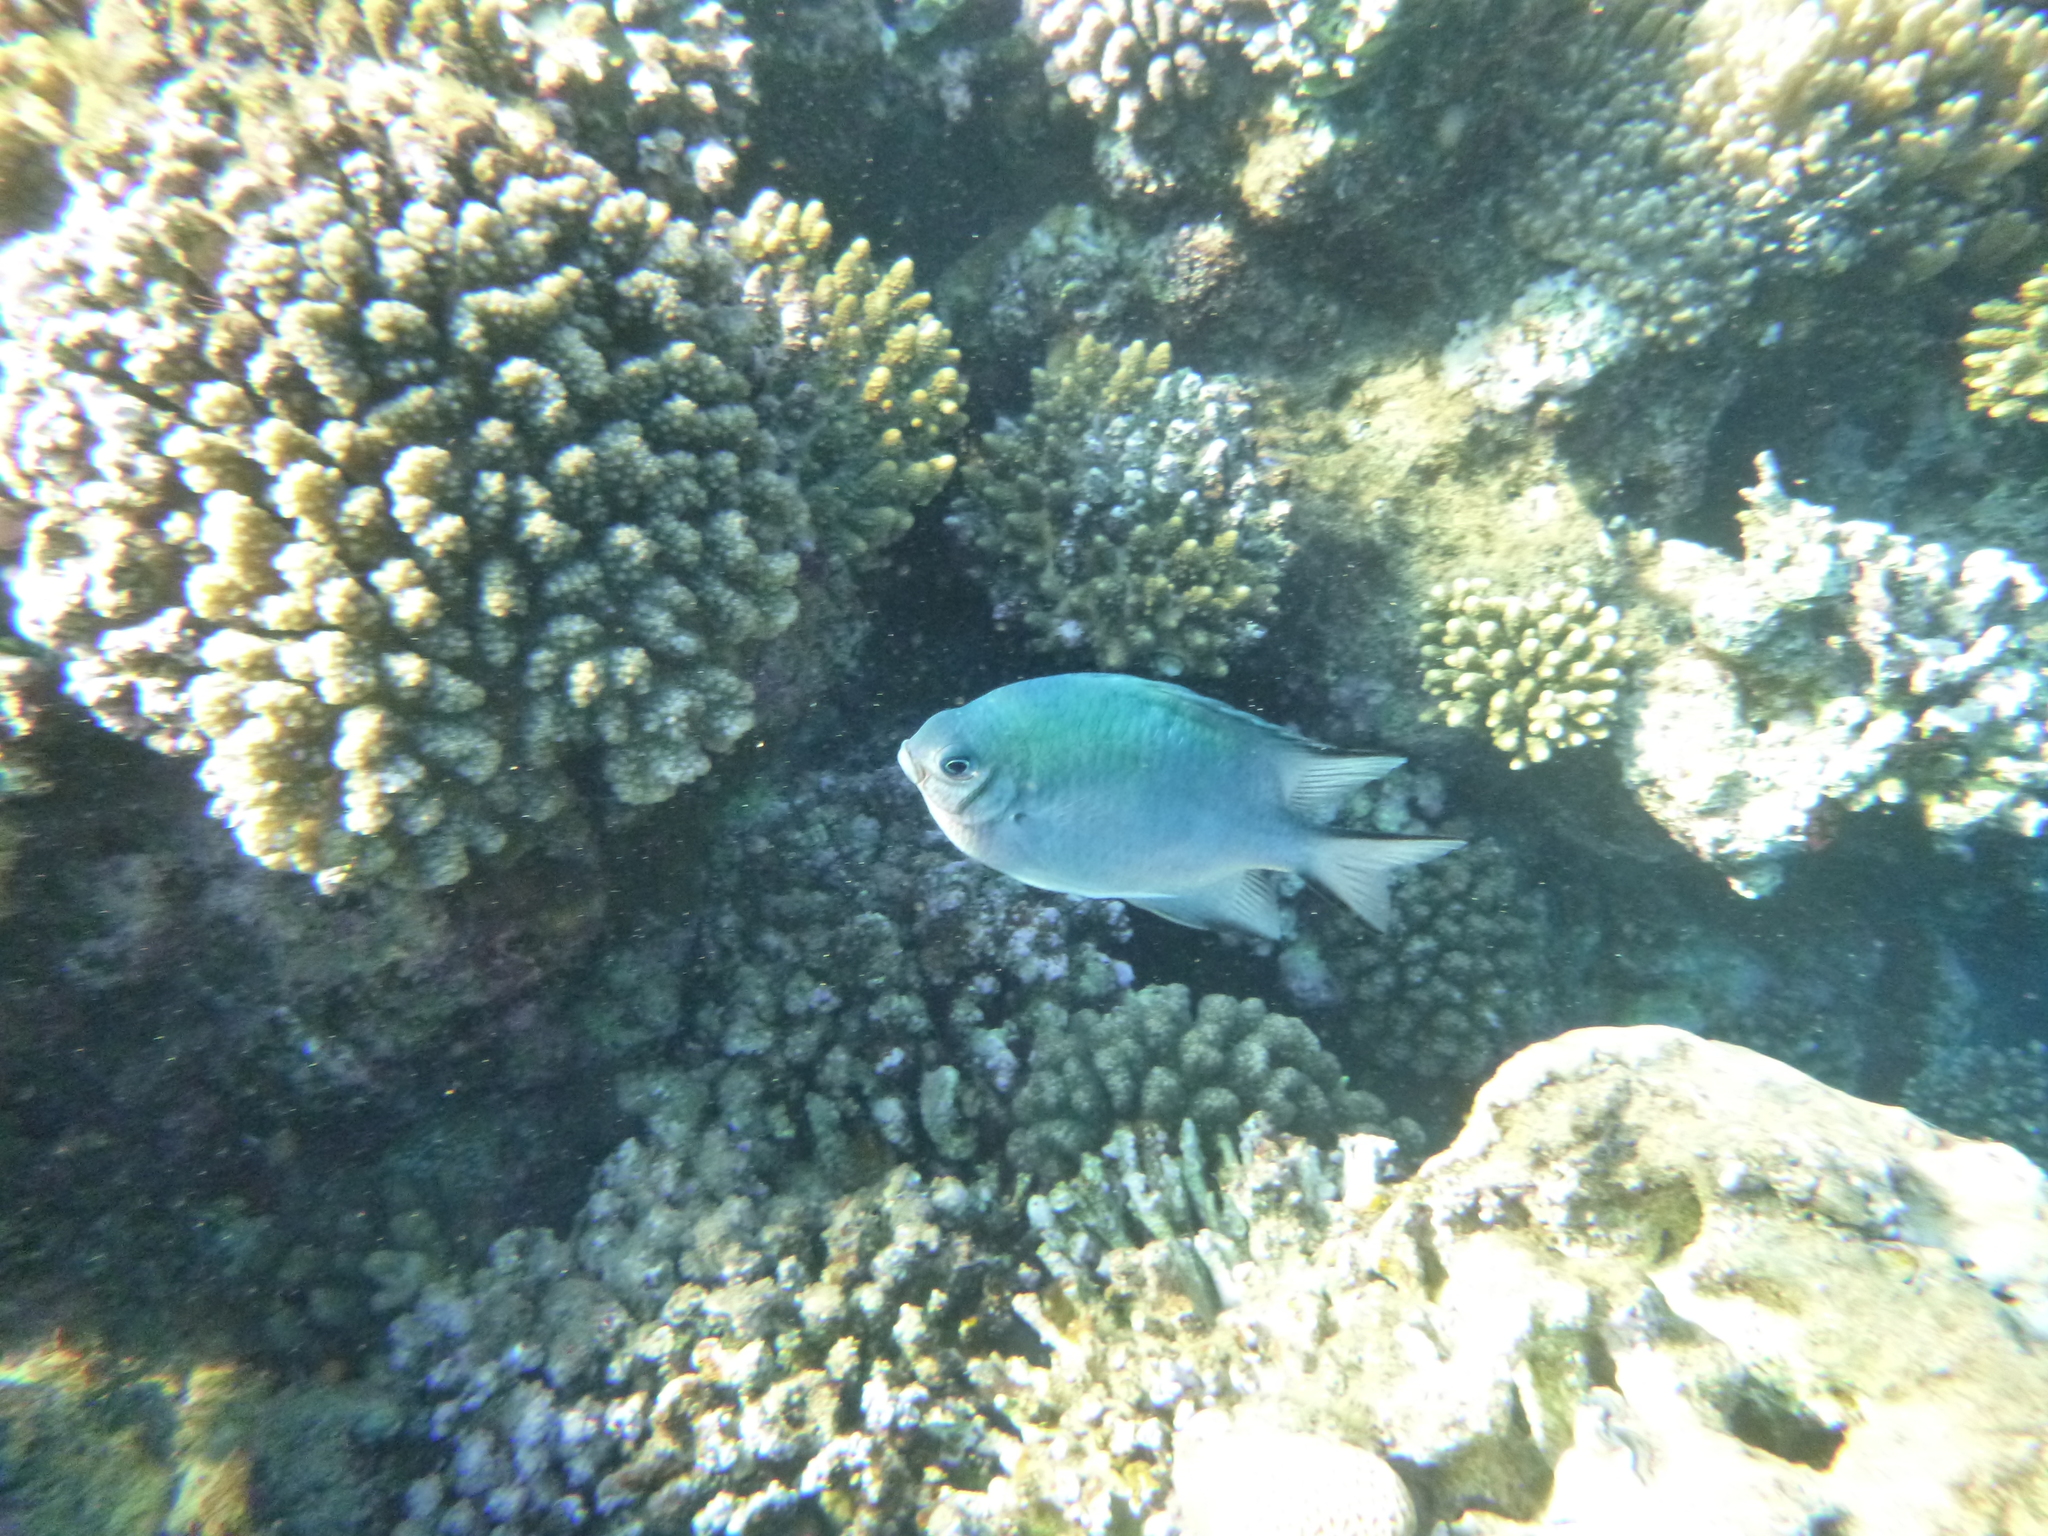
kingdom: Animalia
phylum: Chordata
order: Perciformes
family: Pomacentridae
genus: Amblyglyphidodon
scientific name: Amblyglyphidodon indicus
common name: Maldives damselfish
